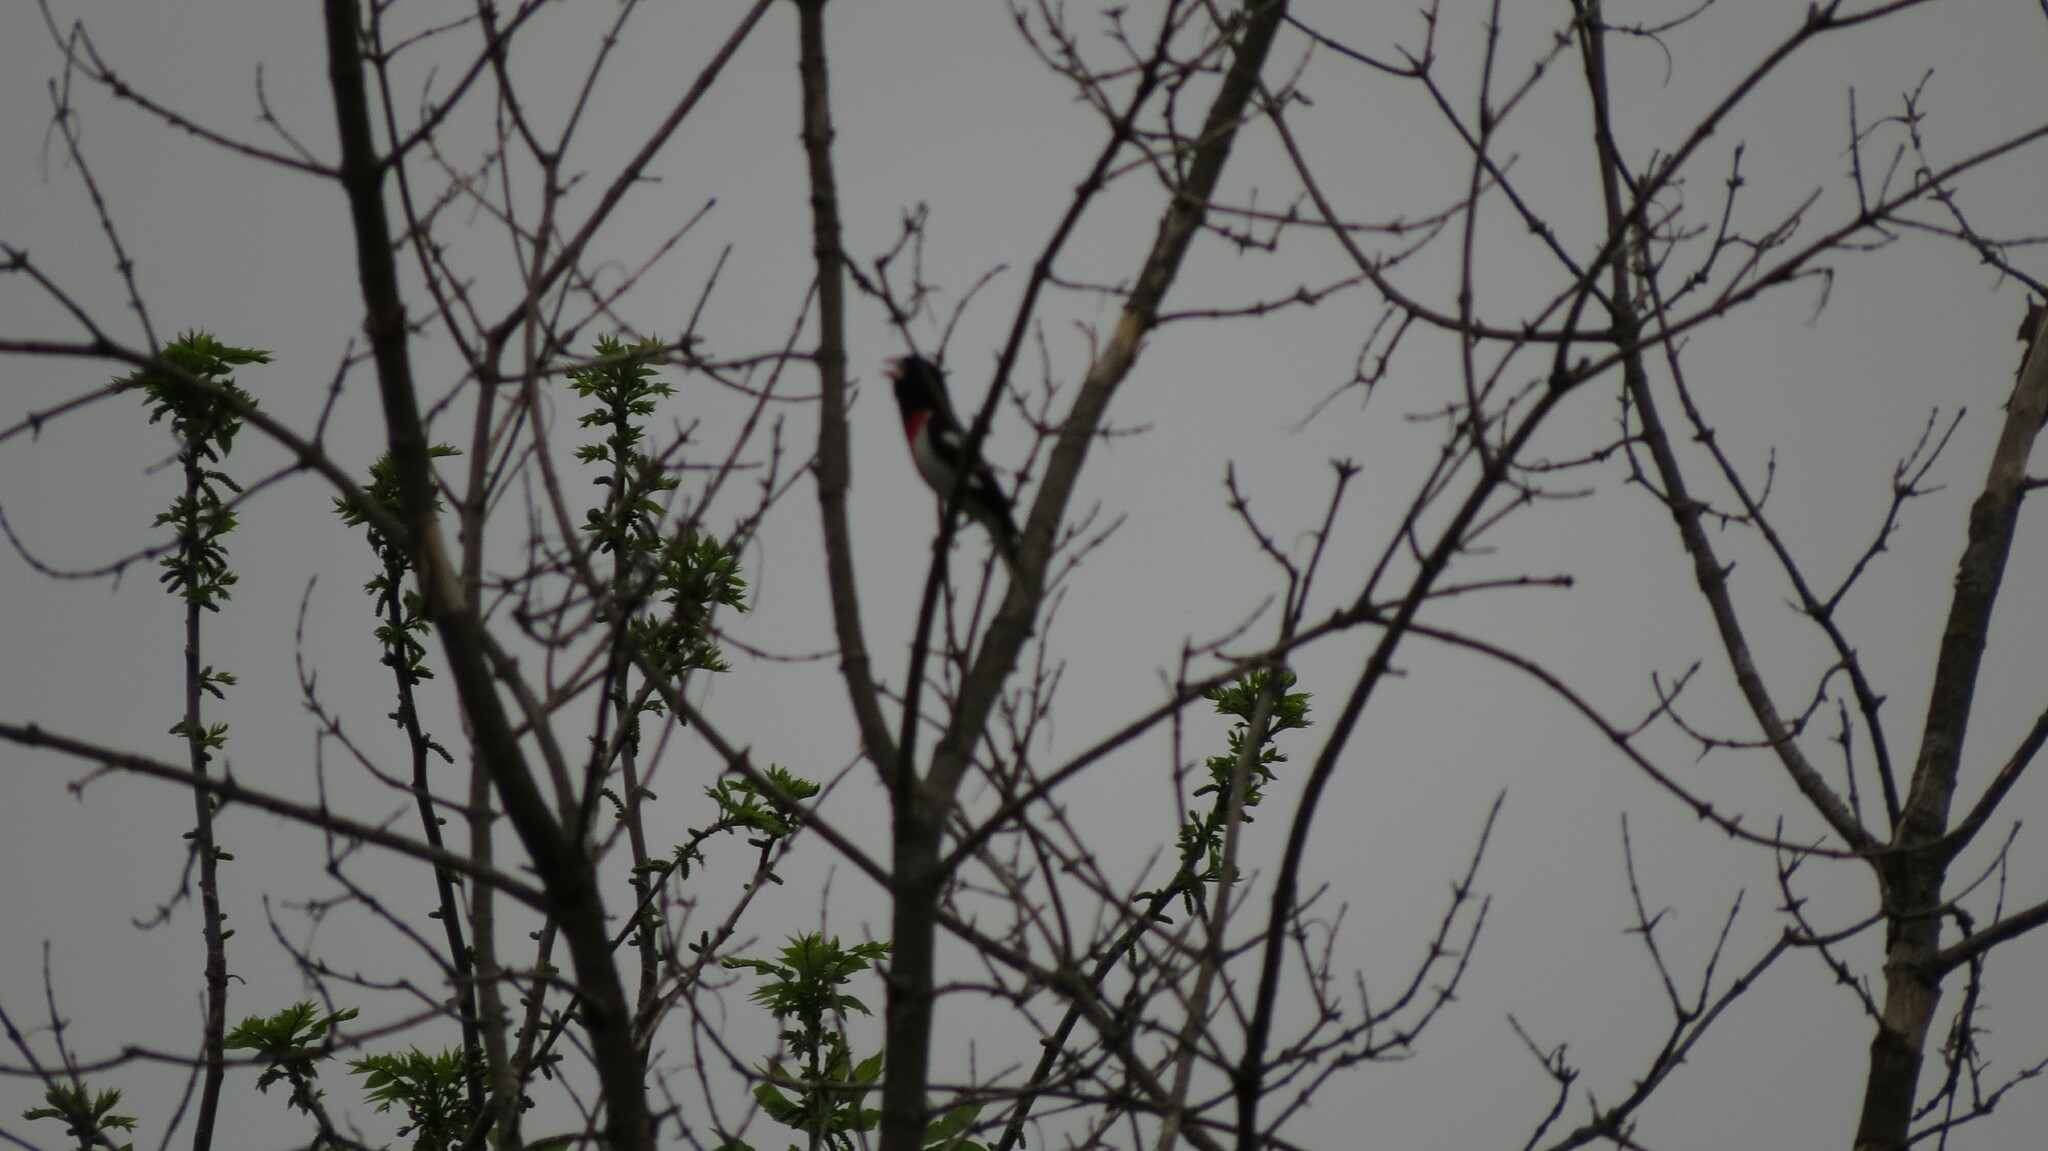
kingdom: Animalia
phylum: Chordata
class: Aves
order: Passeriformes
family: Cardinalidae
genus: Pheucticus
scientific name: Pheucticus ludovicianus
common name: Rose-breasted grosbeak
